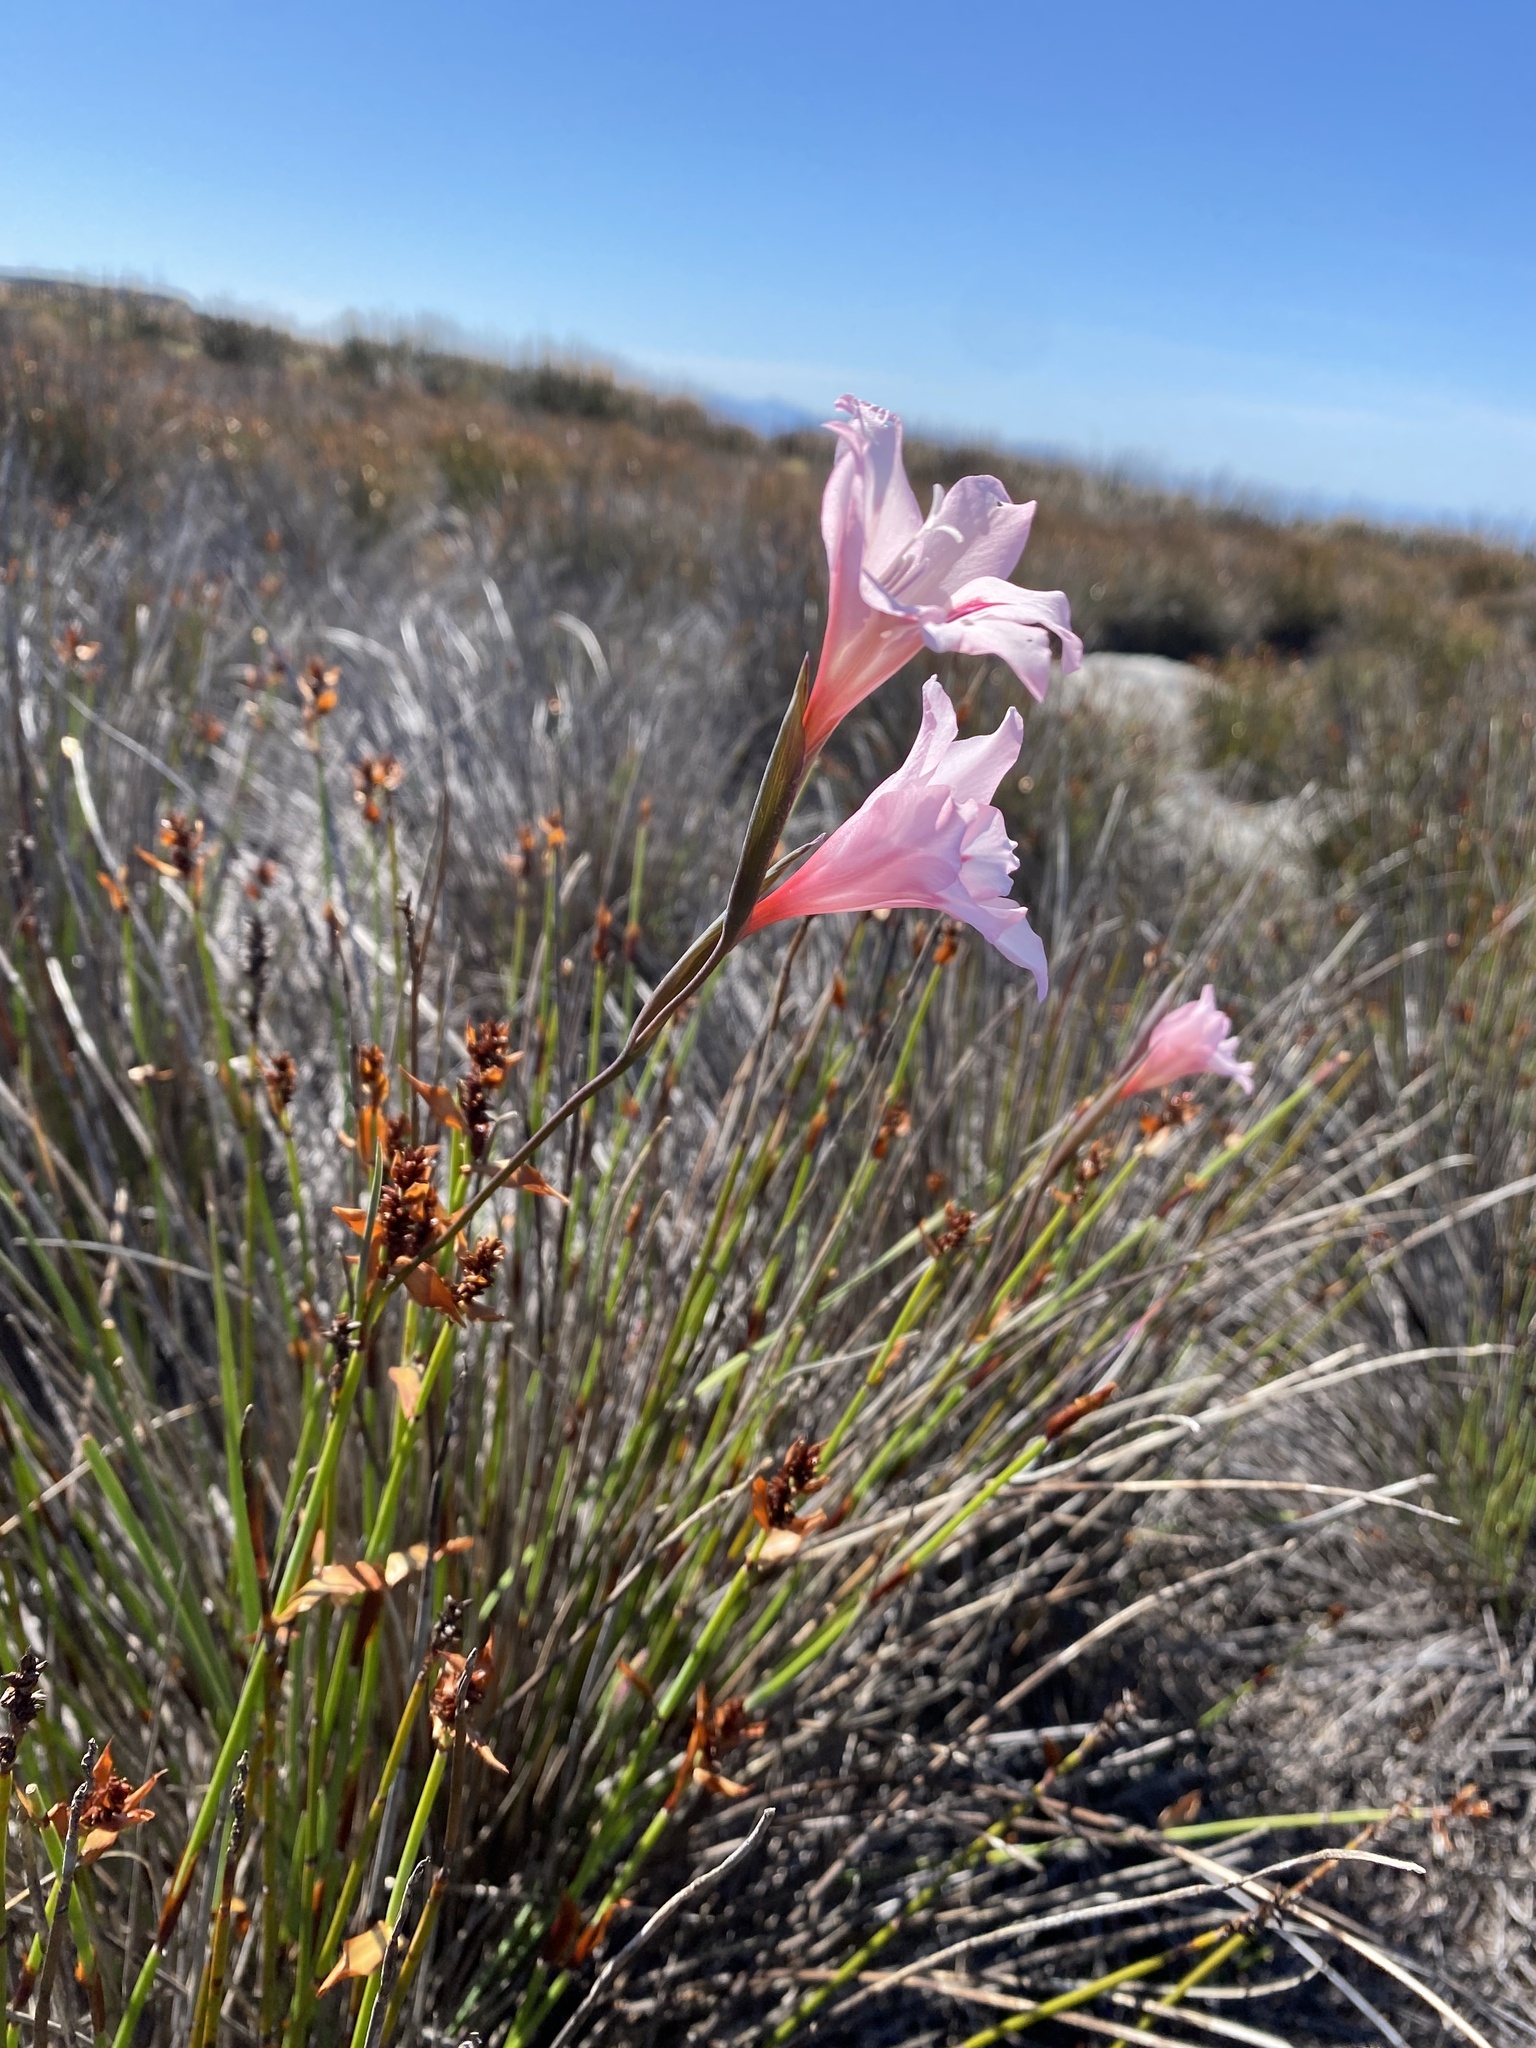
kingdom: Plantae
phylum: Tracheophyta
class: Liliopsida
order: Asparagales
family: Iridaceae
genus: Gladiolus
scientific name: Gladiolus pappei
